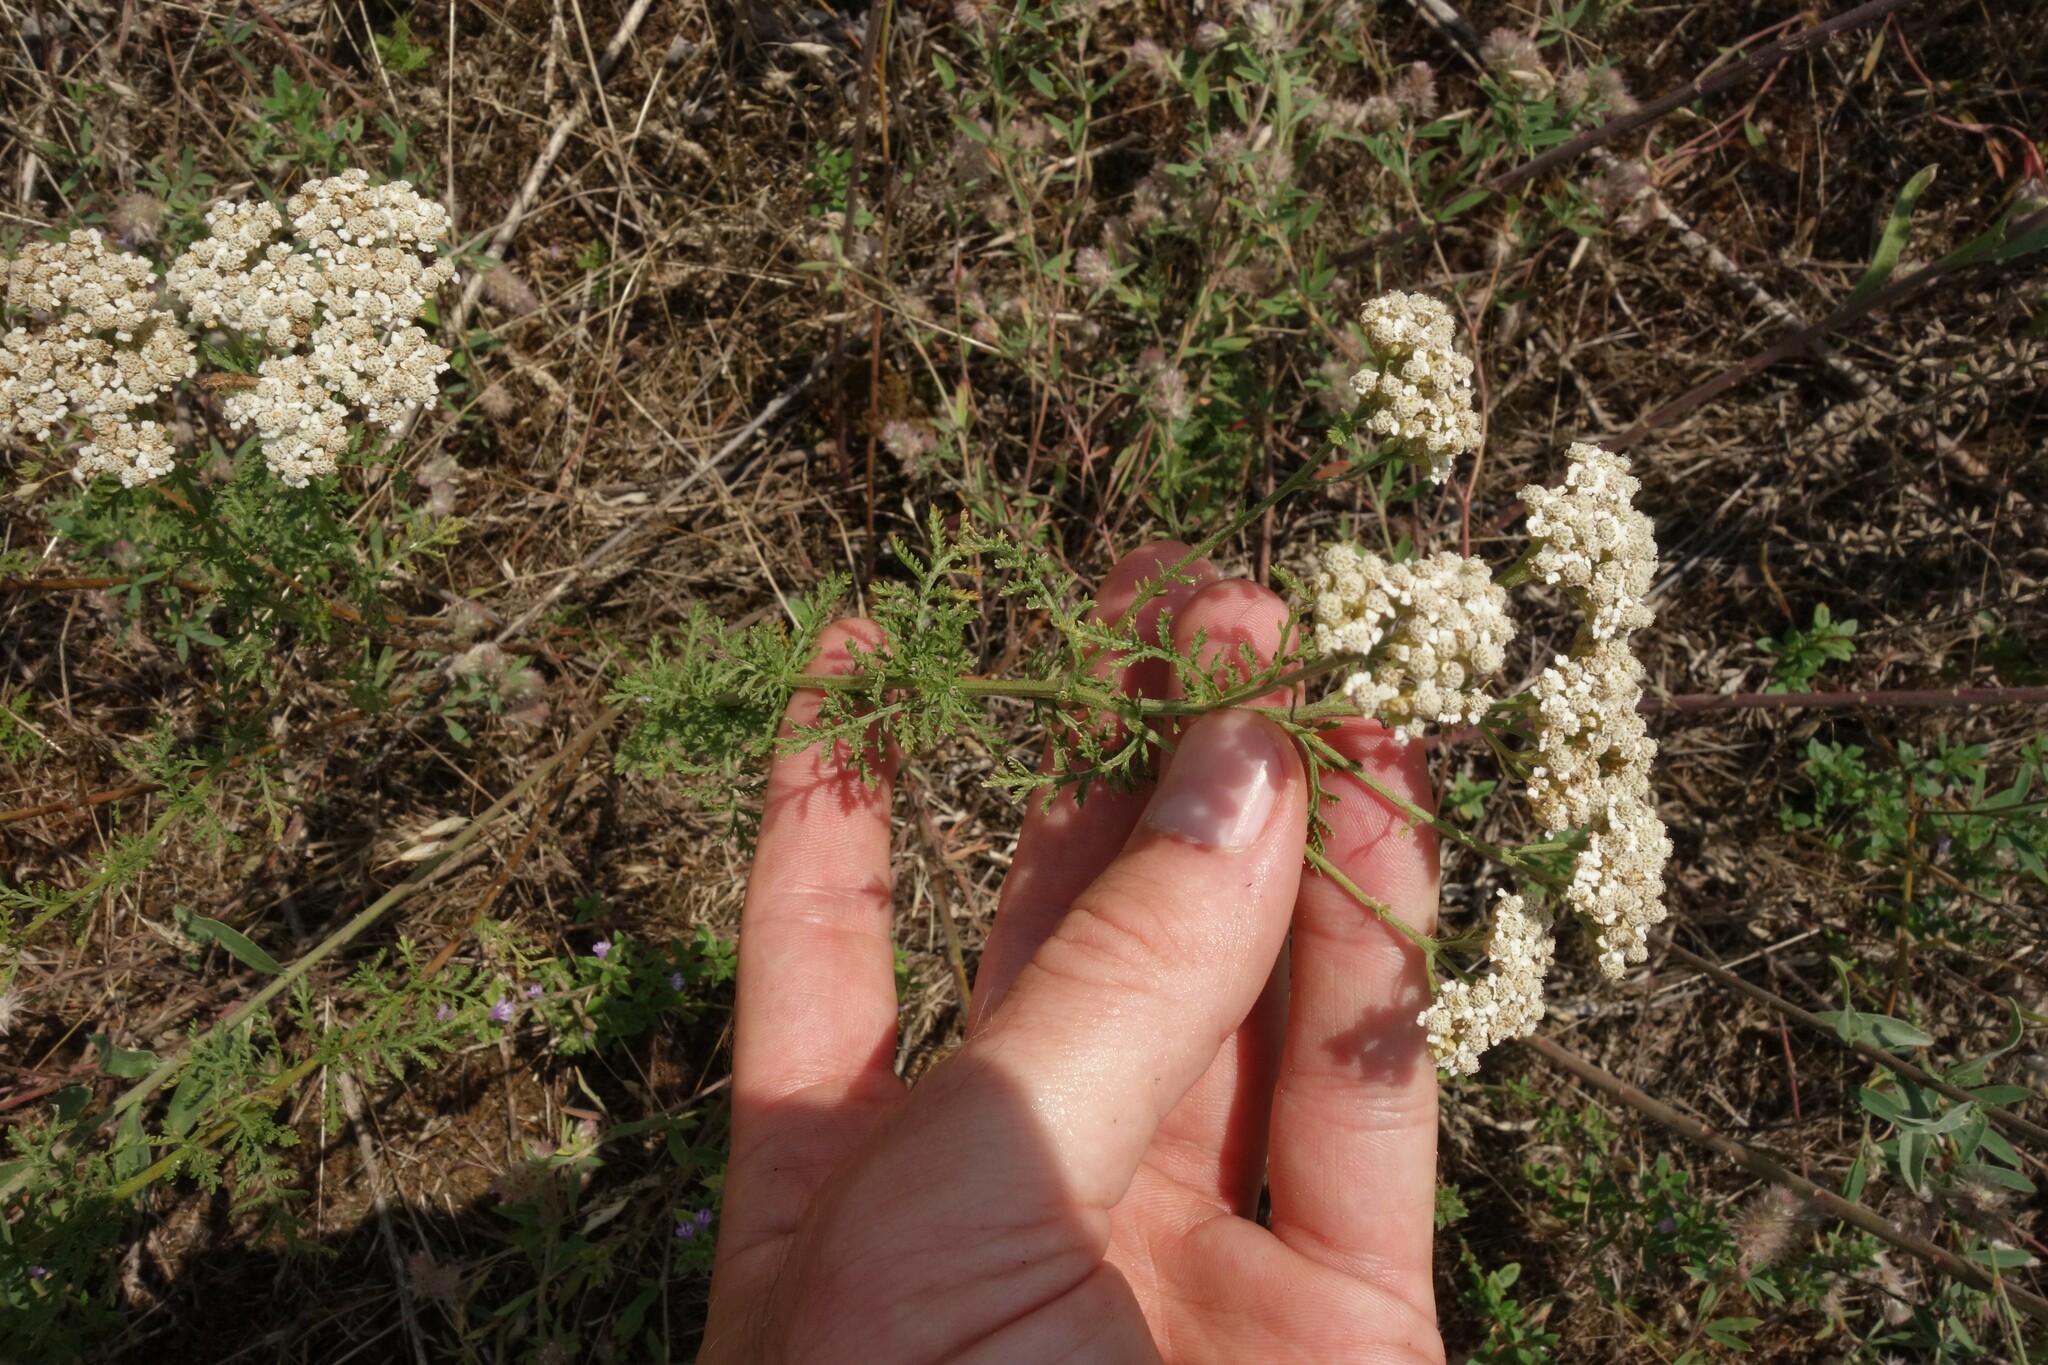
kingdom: Plantae
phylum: Tracheophyta
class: Magnoliopsida
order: Asterales
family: Asteraceae
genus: Achillea
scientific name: Achillea nobilis
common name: Noble yarrow
